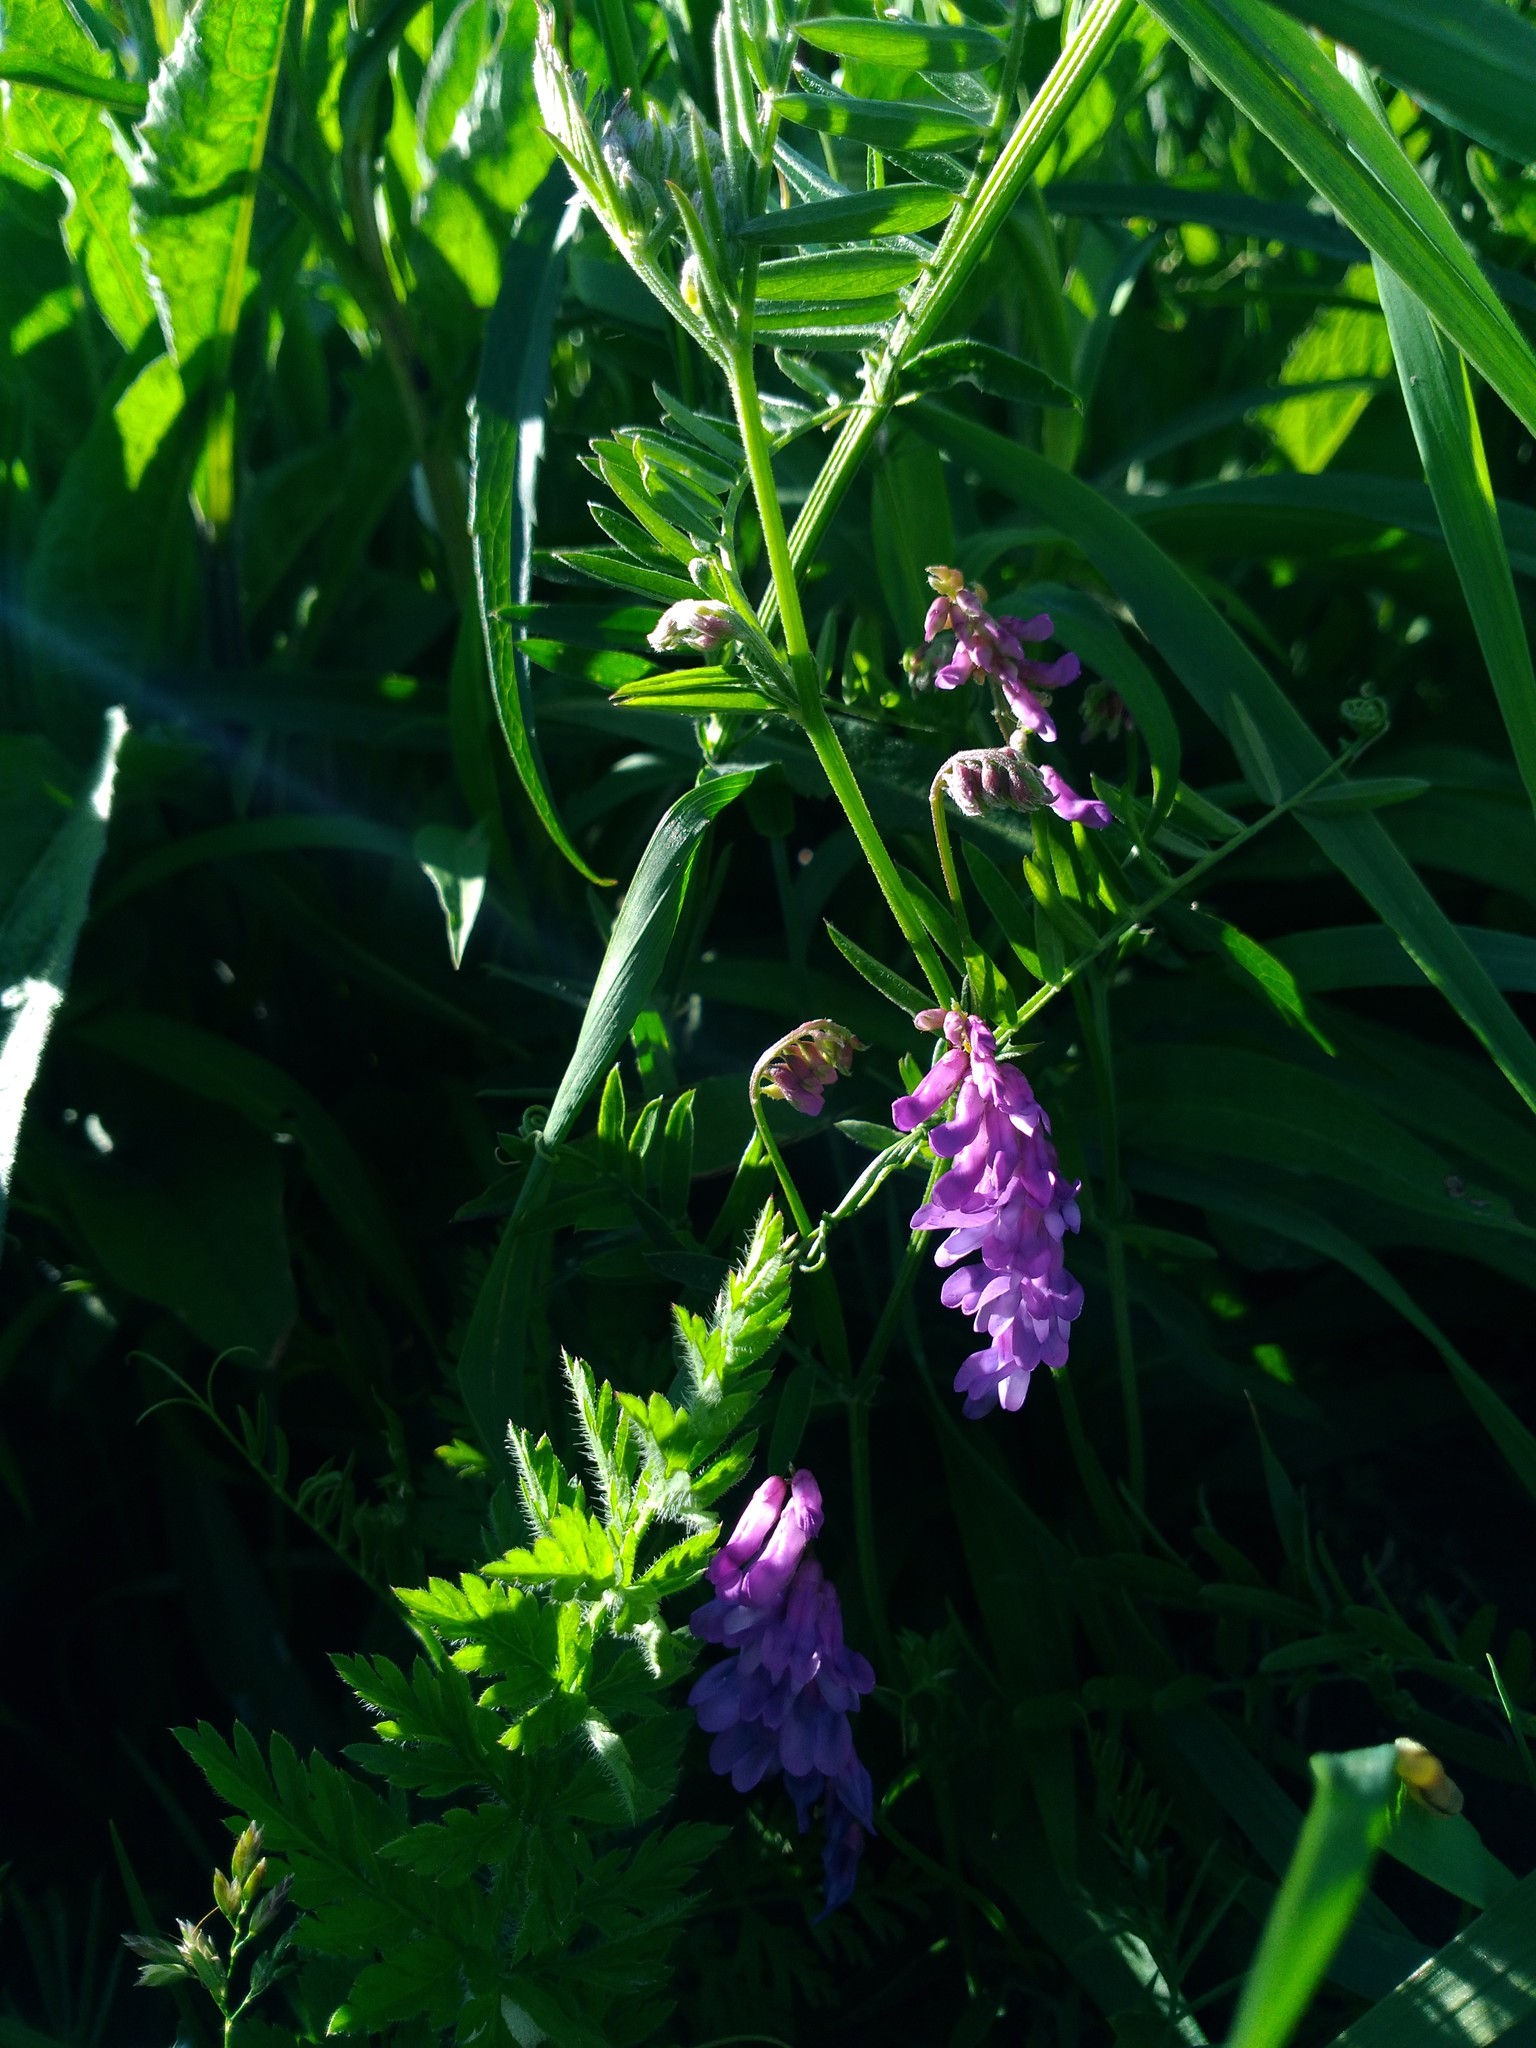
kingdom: Plantae
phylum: Tracheophyta
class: Magnoliopsida
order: Fabales
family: Fabaceae
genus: Vicia
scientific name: Vicia cracca
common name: Bird vetch
